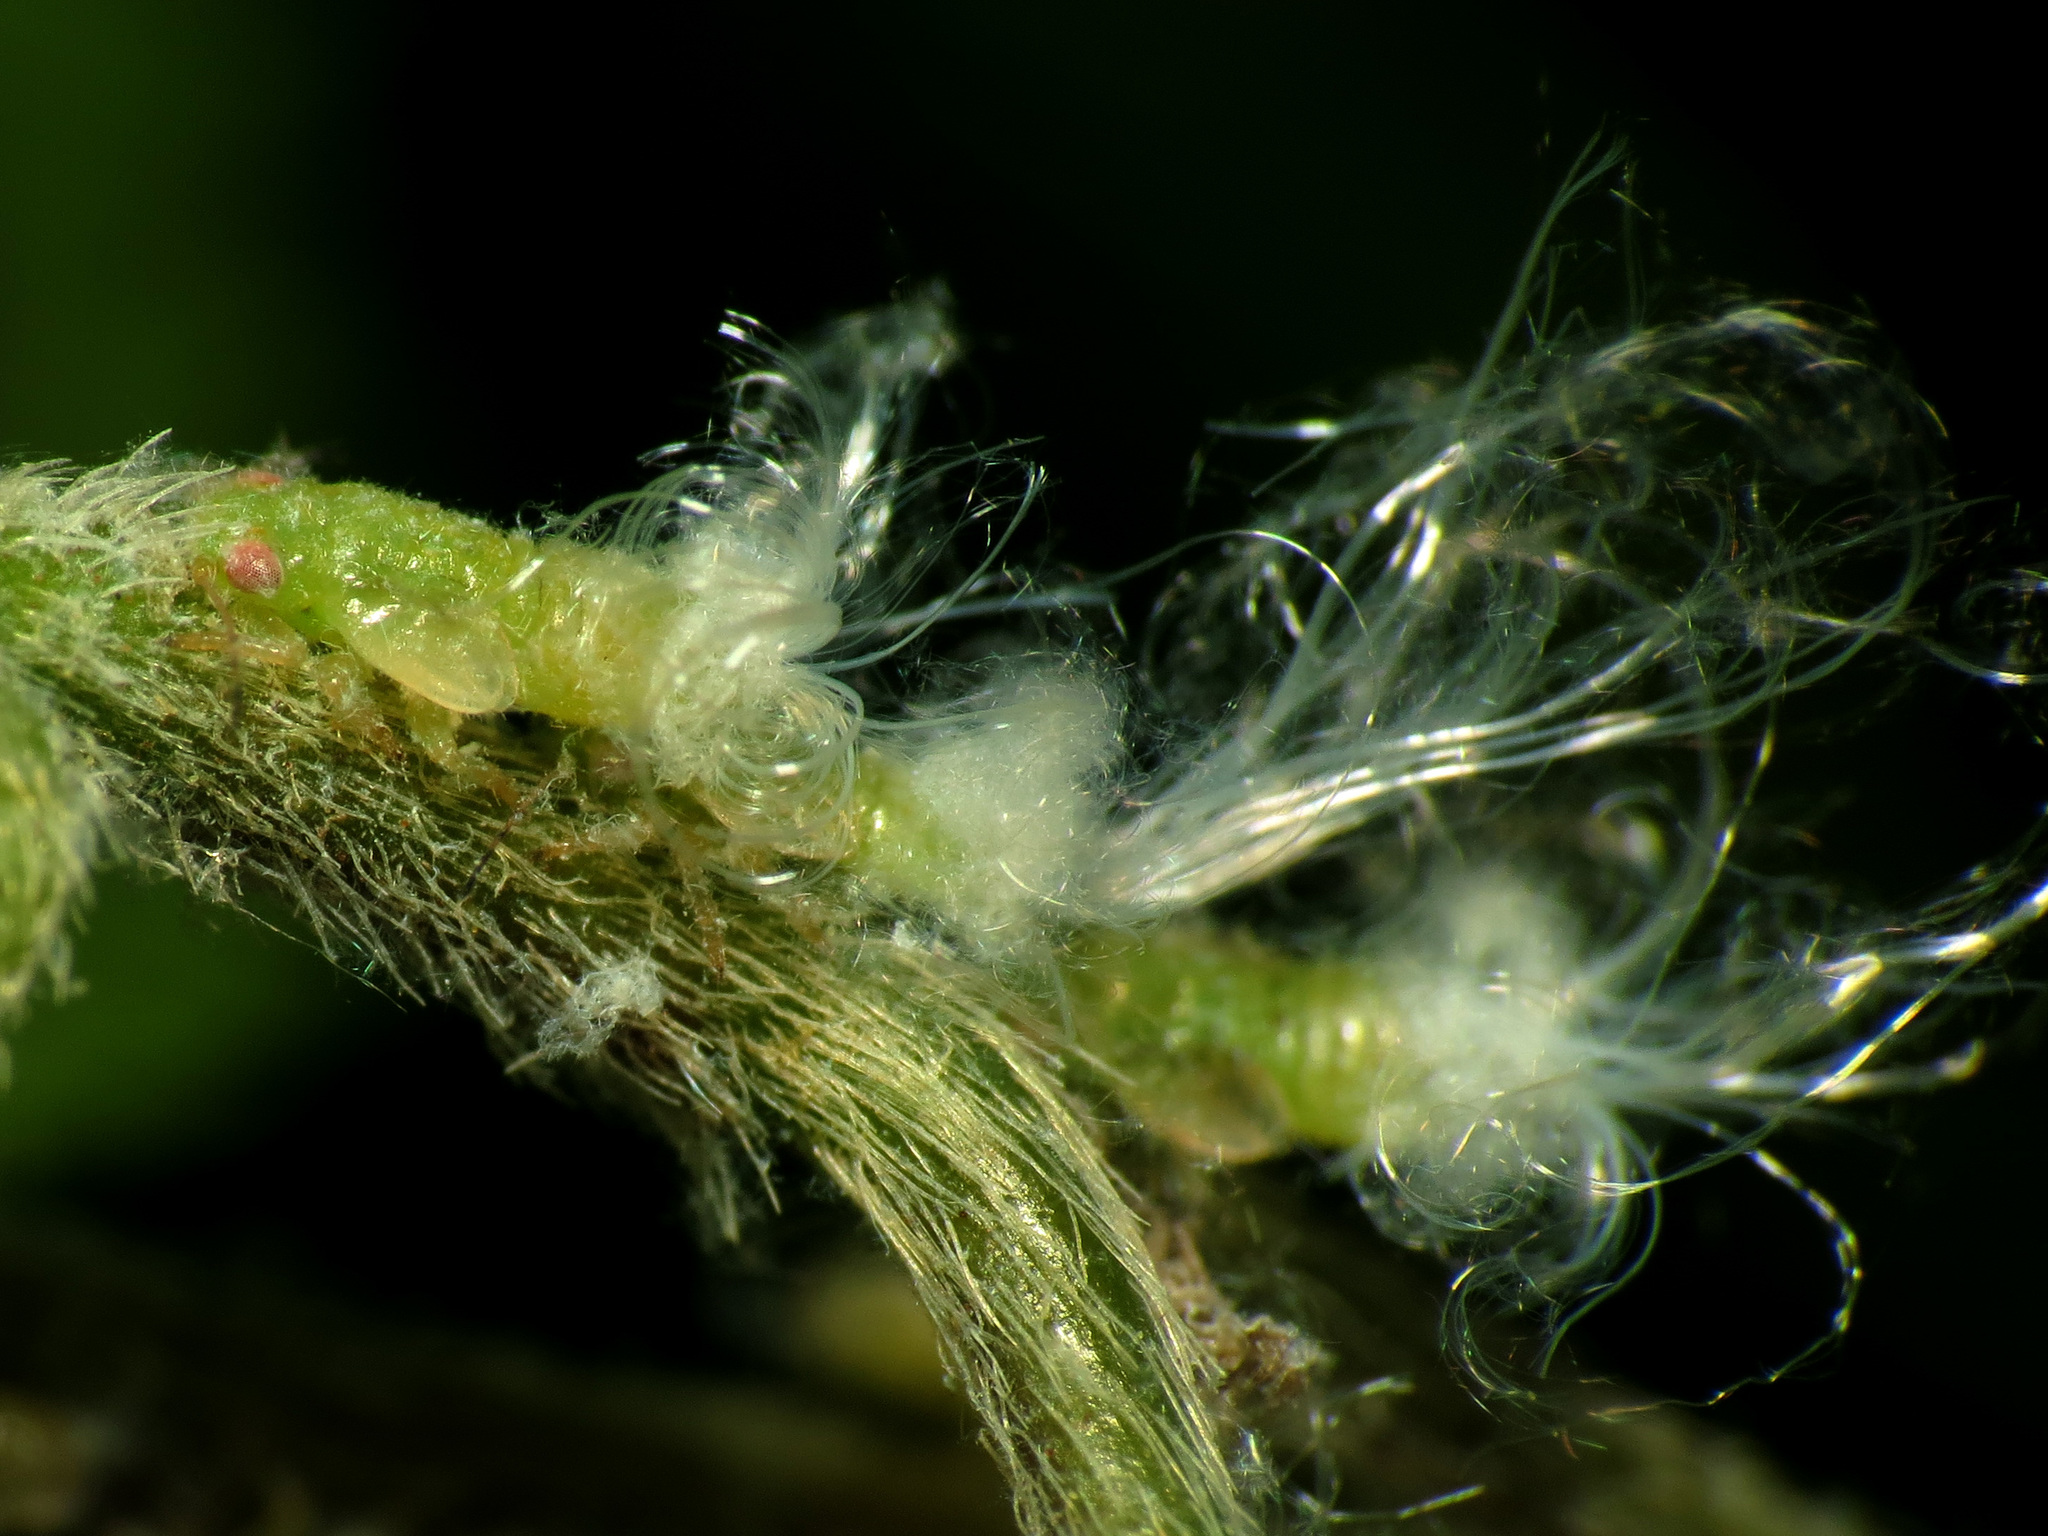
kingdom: Animalia
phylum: Arthropoda
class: Insecta
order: Hemiptera
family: Psyllidae
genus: Psylla
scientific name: Psylla carpinicola
